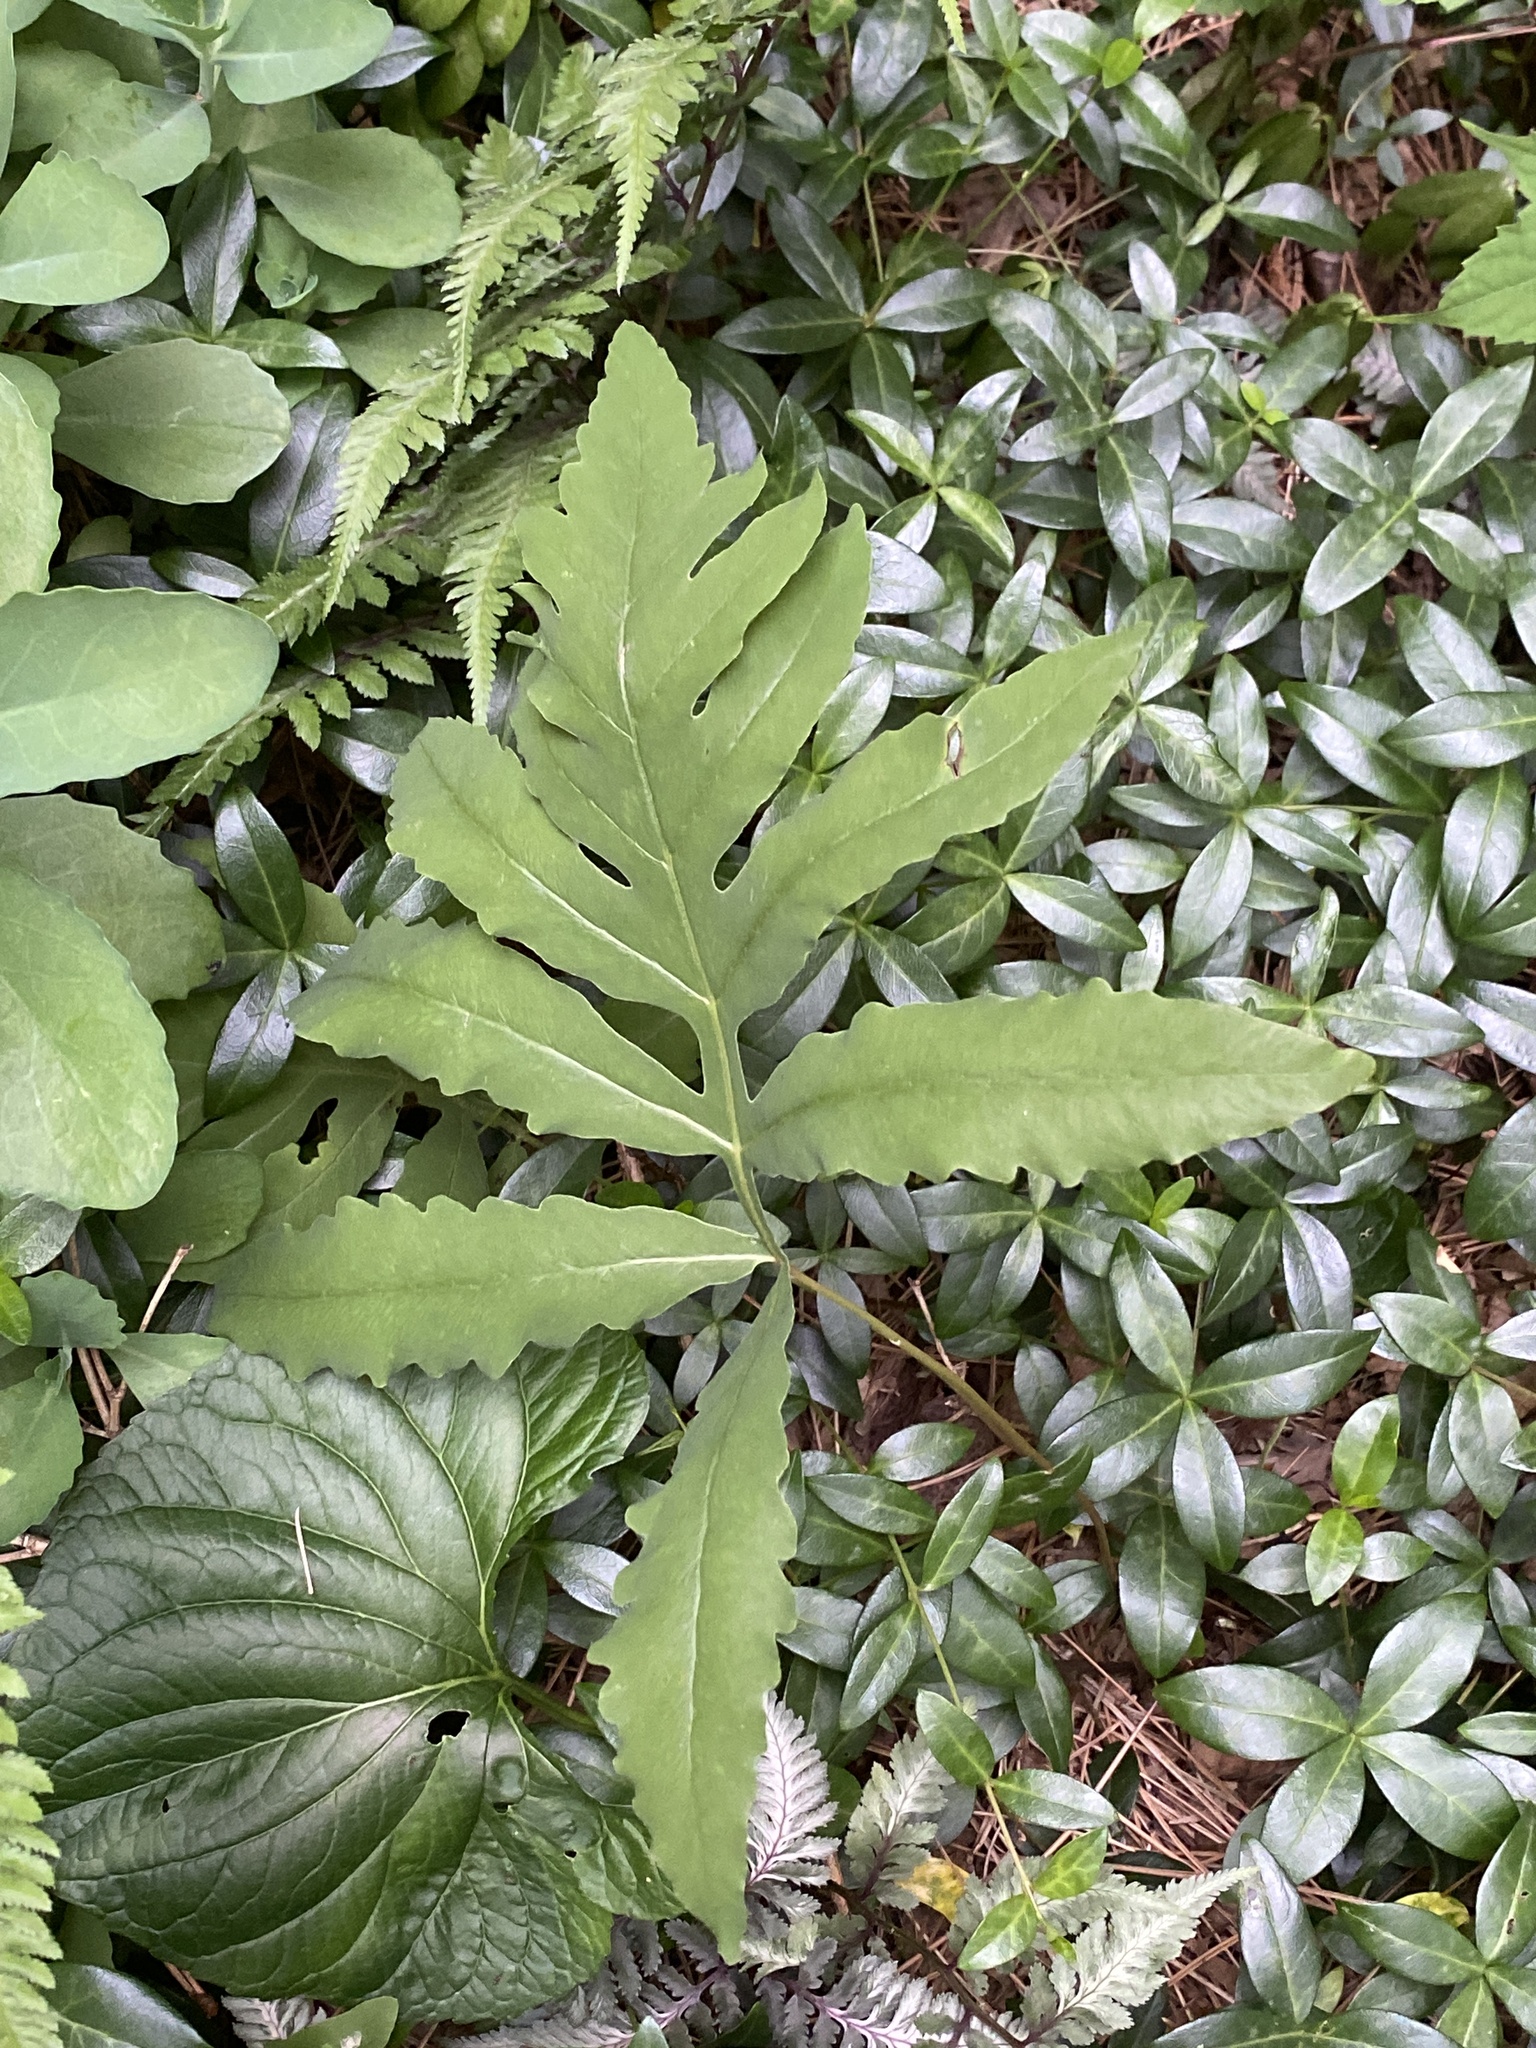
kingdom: Plantae
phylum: Tracheophyta
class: Polypodiopsida
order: Polypodiales
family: Onocleaceae
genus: Onoclea
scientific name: Onoclea sensibilis
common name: Sensitive fern
